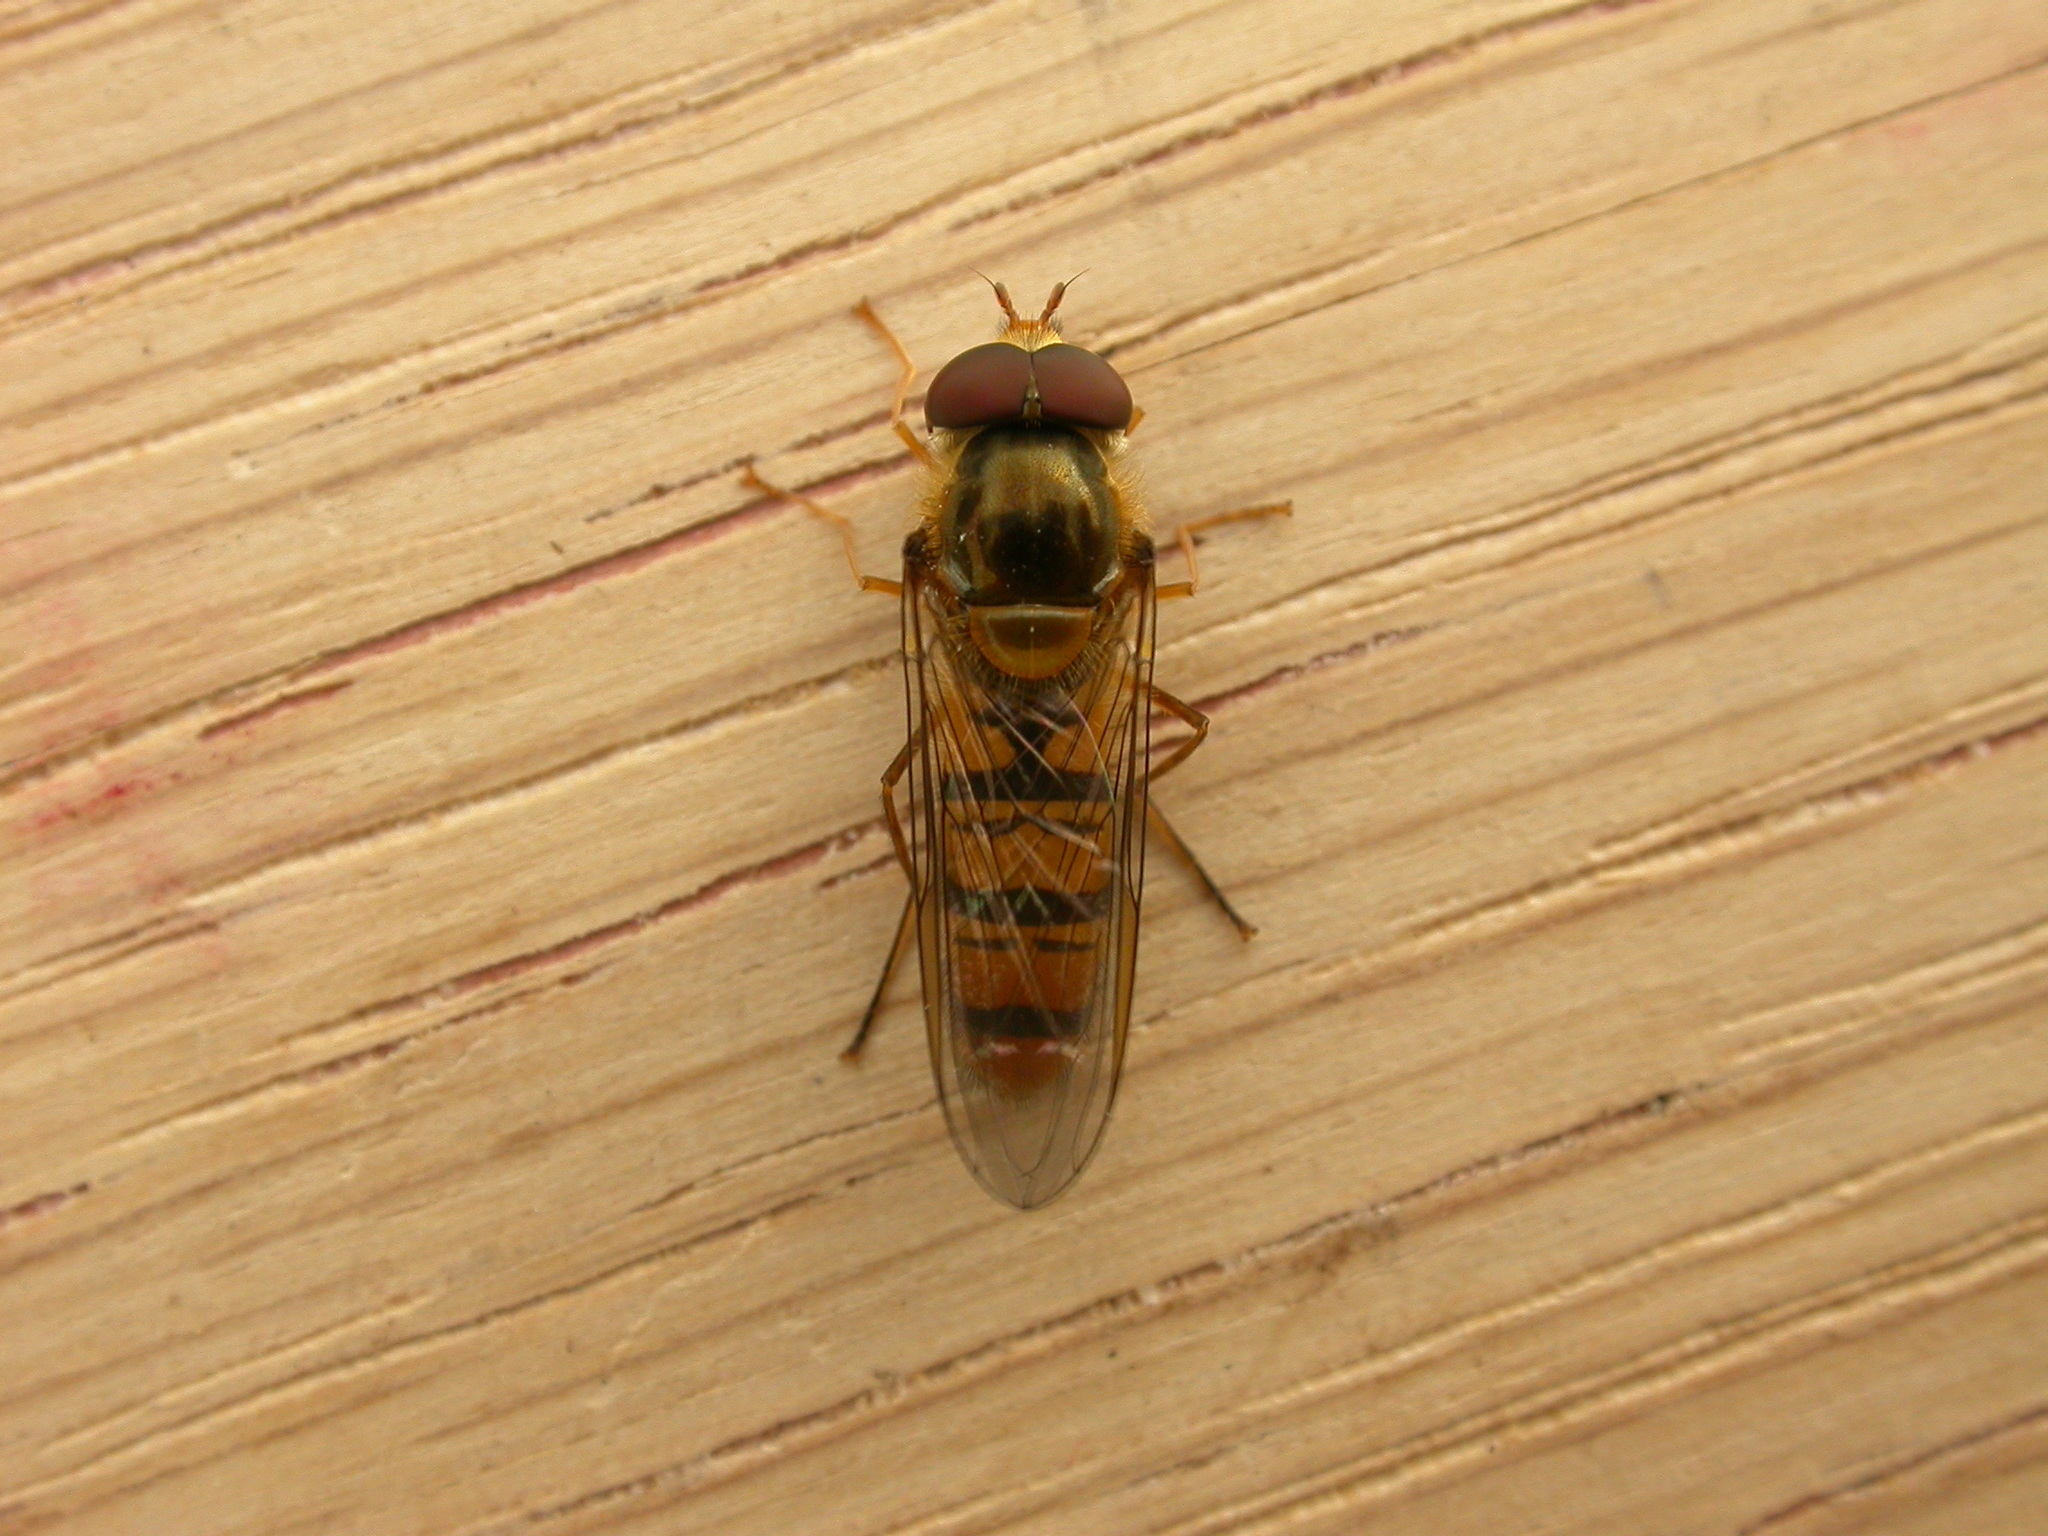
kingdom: Animalia
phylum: Arthropoda
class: Insecta
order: Diptera
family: Syrphidae
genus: Episyrphus
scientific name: Episyrphus balteatus
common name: Marmalade hoverfly
